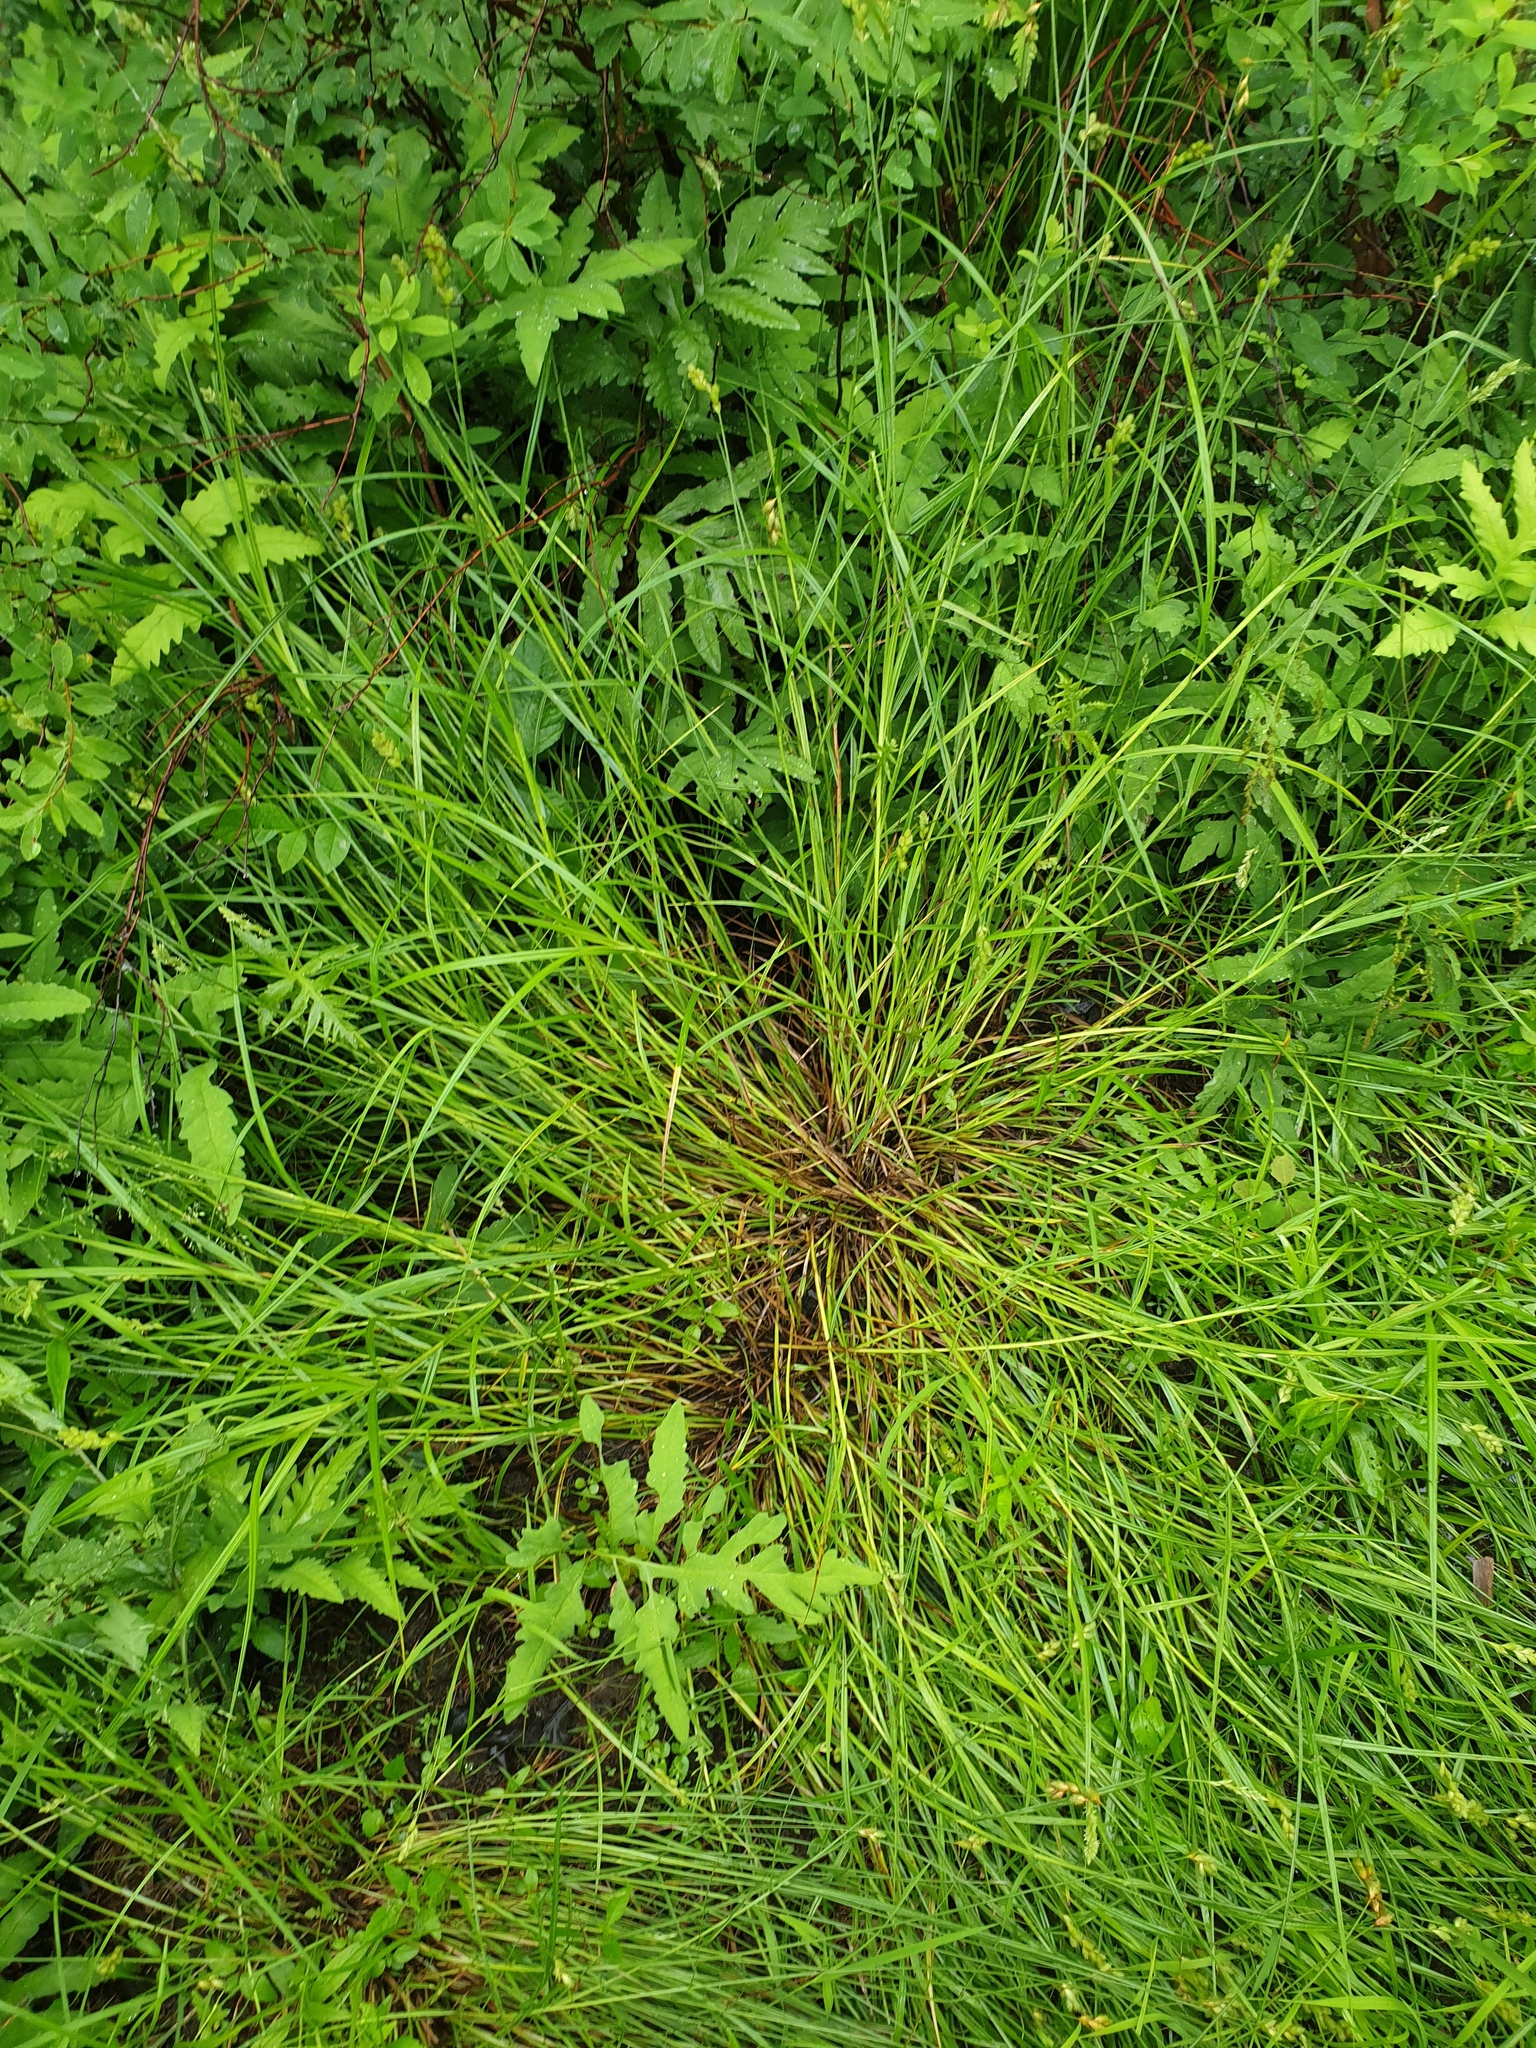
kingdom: Plantae
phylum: Tracheophyta
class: Liliopsida
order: Poales
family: Cyperaceae
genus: Carex
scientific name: Carex tribuloides
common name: Blunt broom sedge
